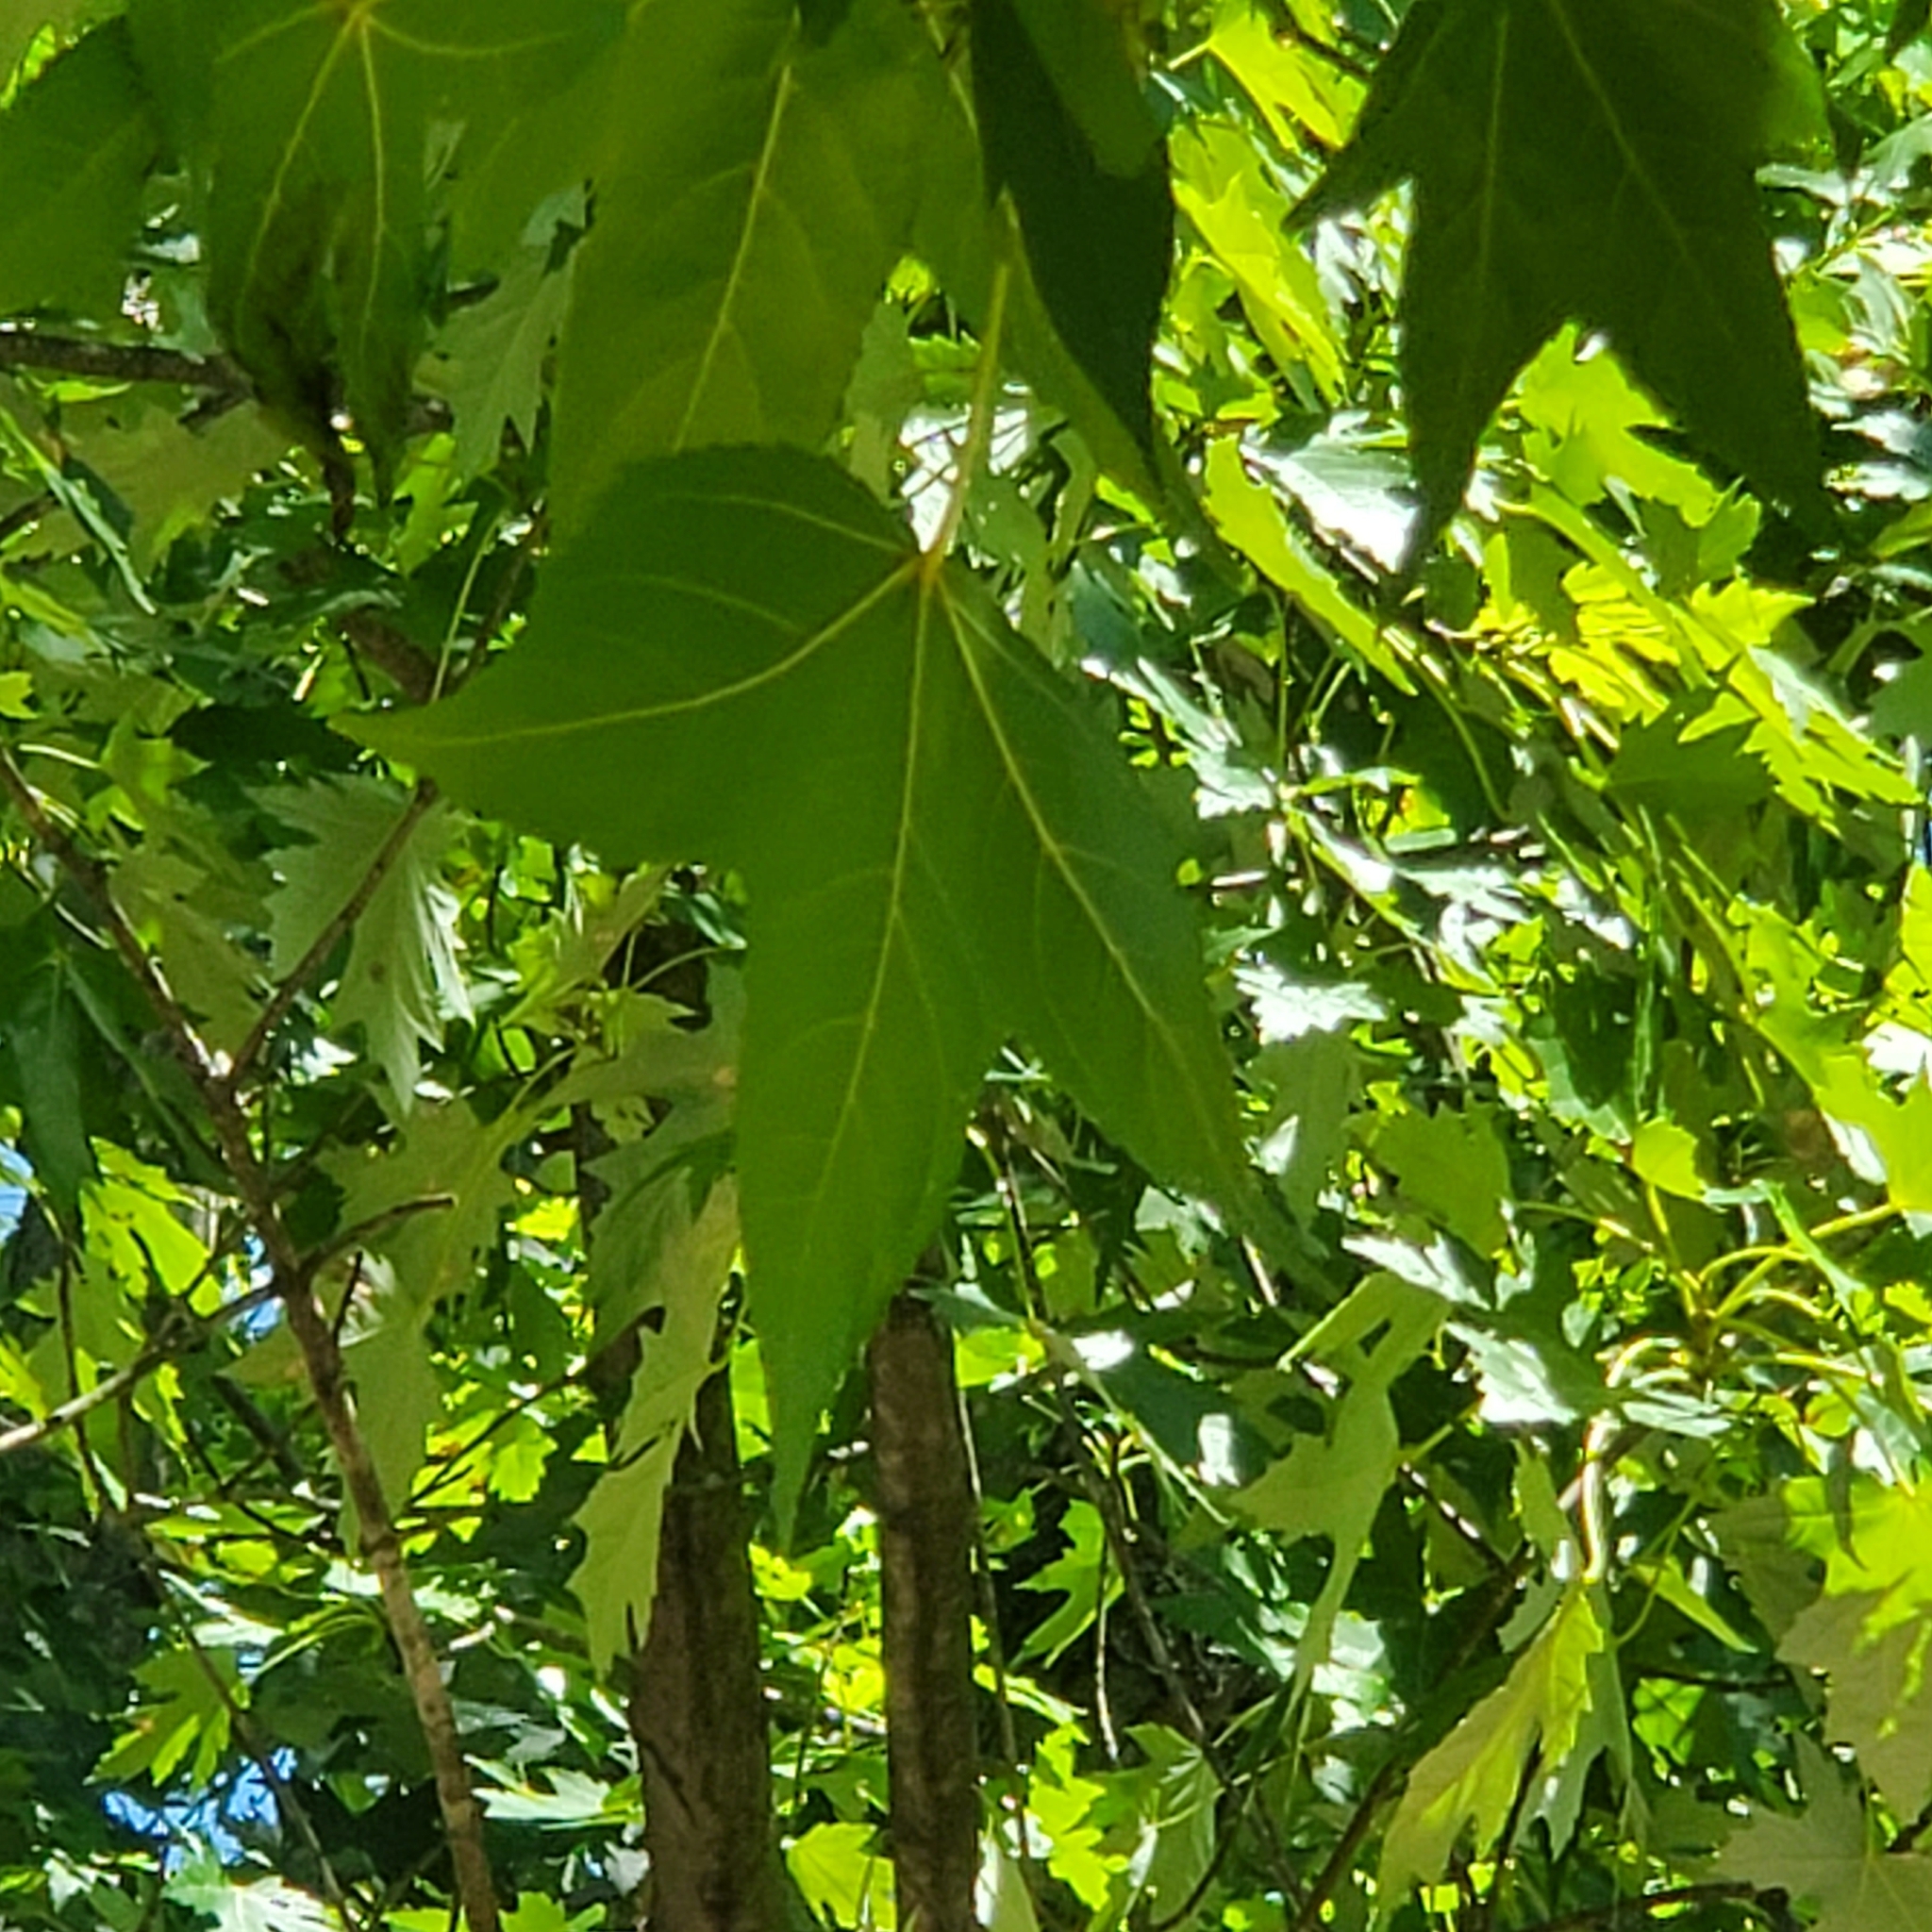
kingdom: Plantae
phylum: Tracheophyta
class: Magnoliopsida
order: Saxifragales
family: Altingiaceae
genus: Liquidambar
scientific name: Liquidambar styraciflua
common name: Sweet gum
